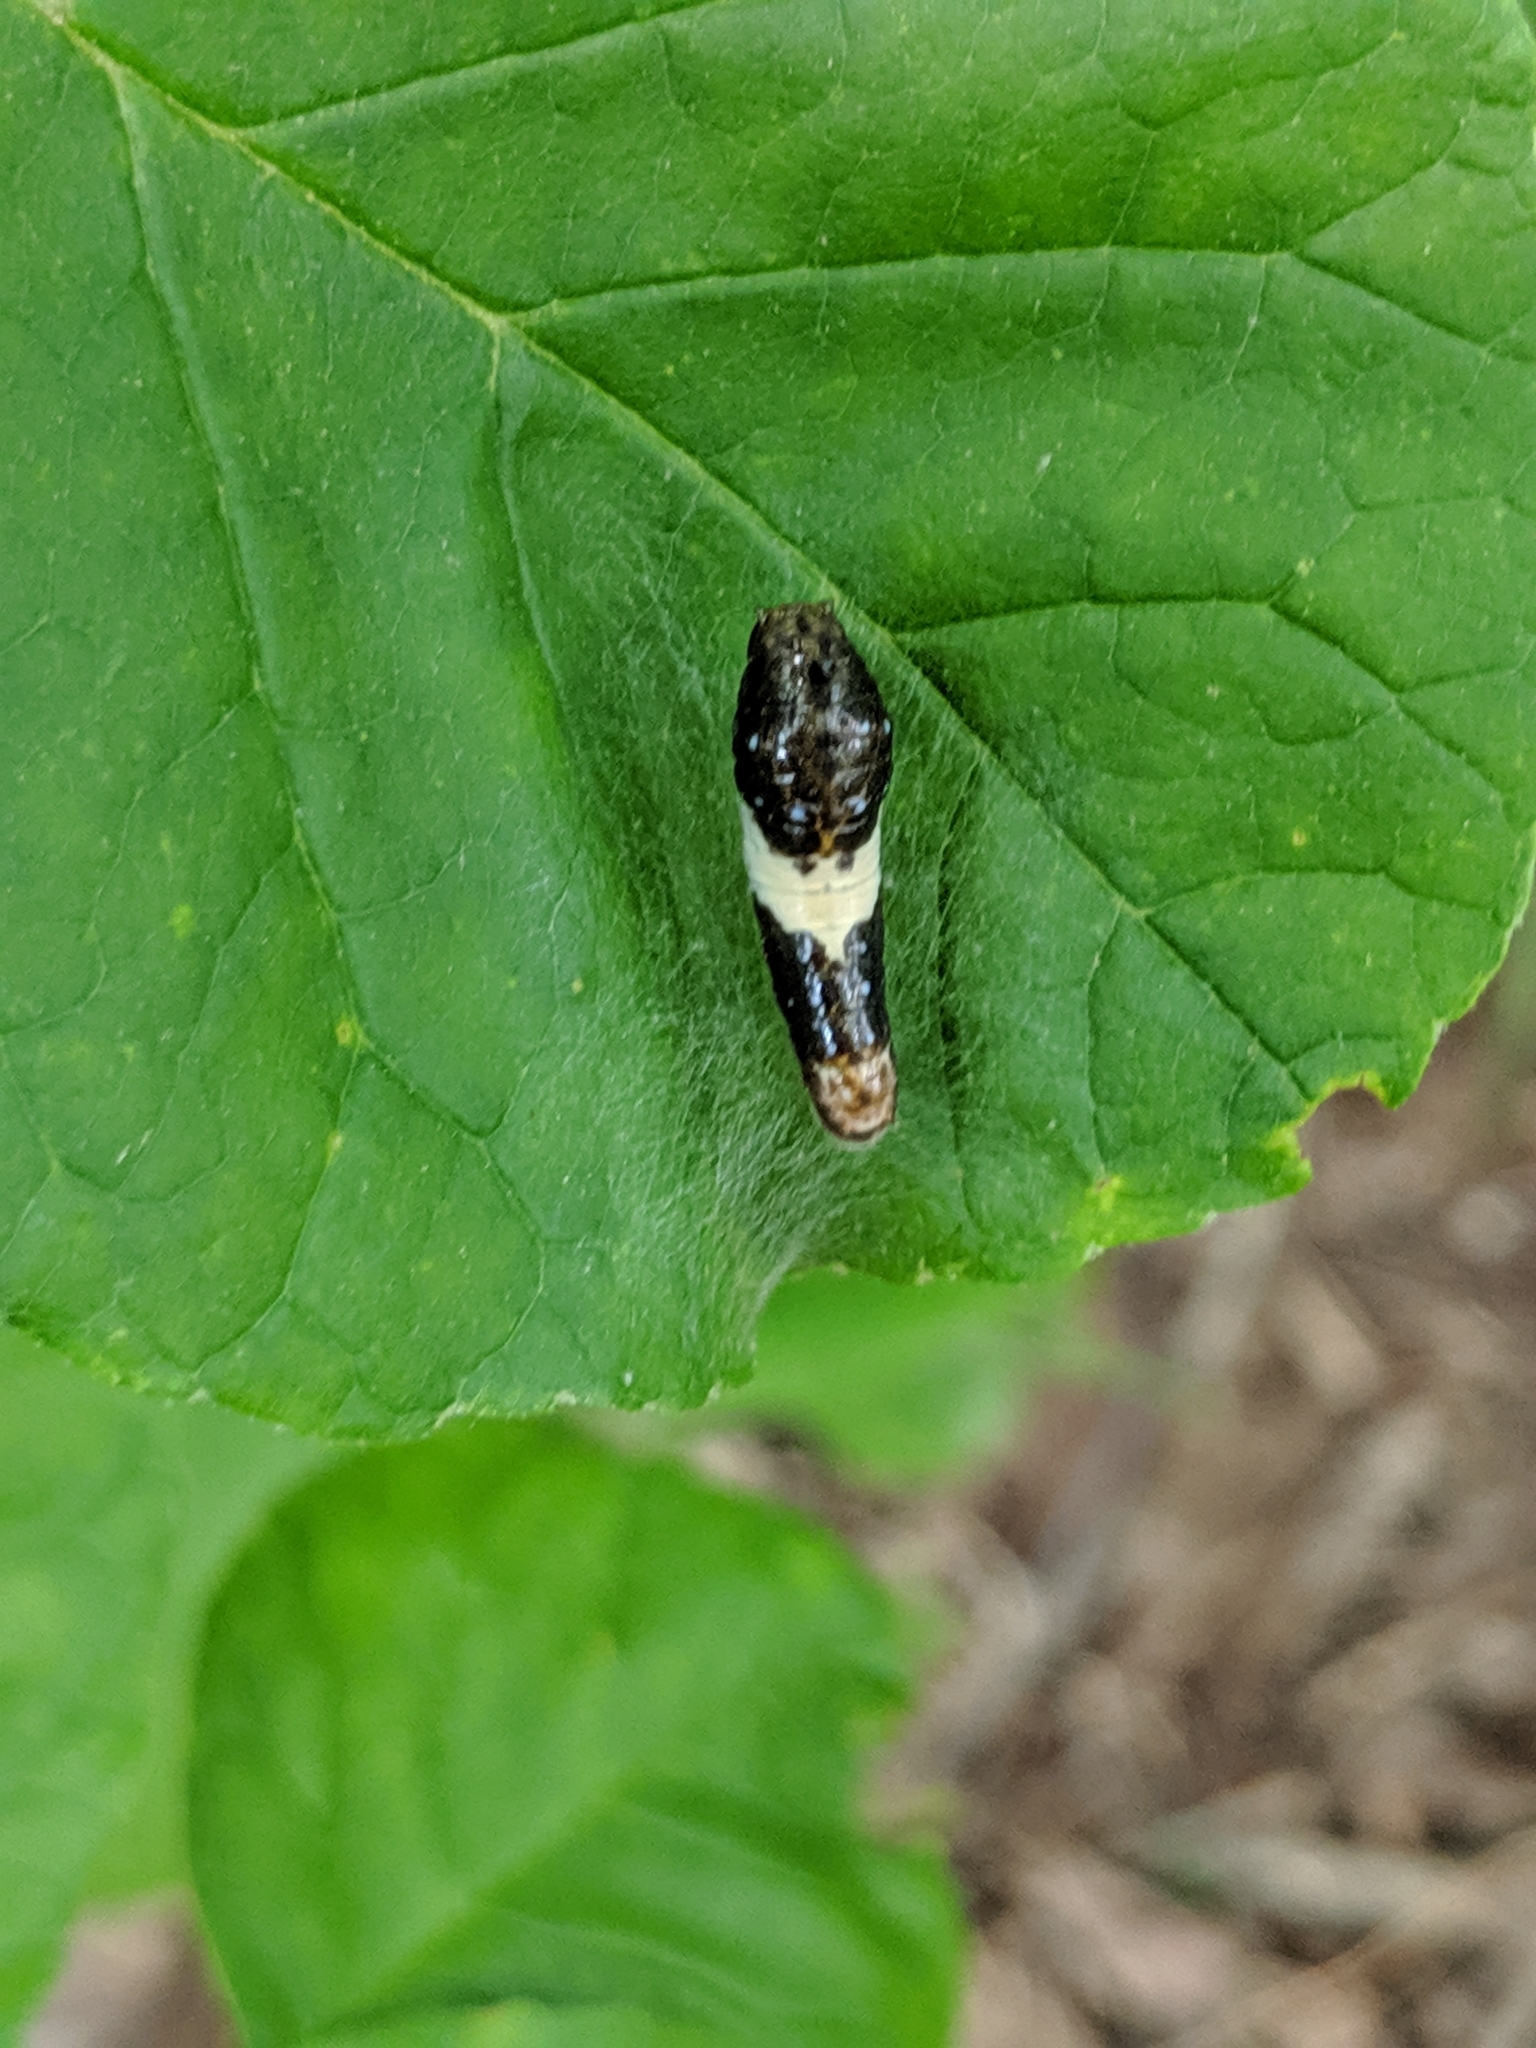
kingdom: Animalia
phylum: Arthropoda
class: Insecta
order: Lepidoptera
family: Papilionidae
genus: Papilio
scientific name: Papilio glaucus
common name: Tiger swallowtail
